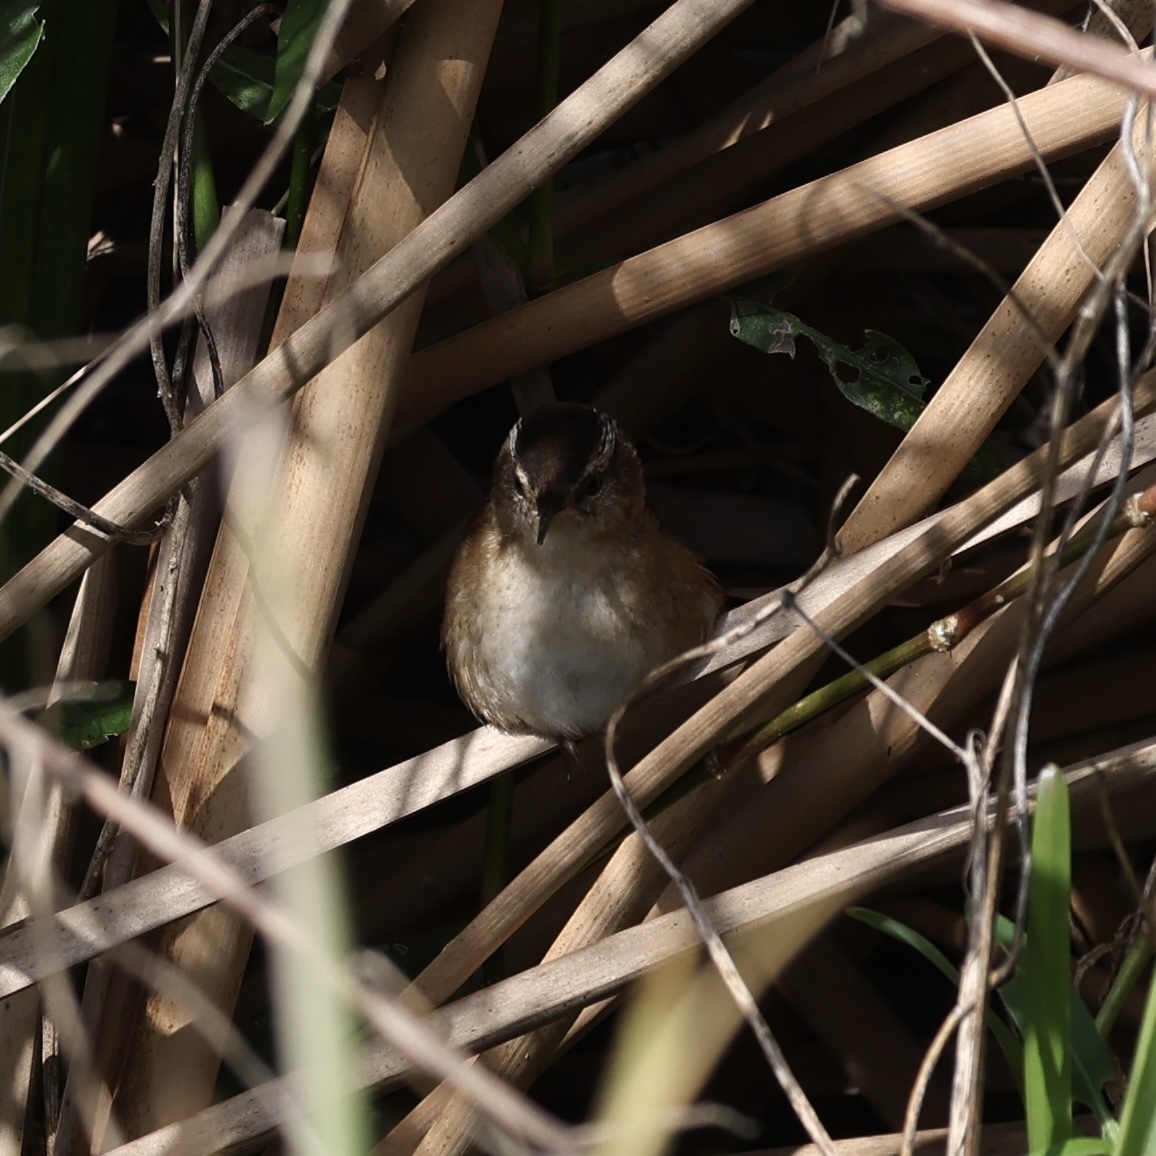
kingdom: Animalia
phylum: Chordata
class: Aves
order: Passeriformes
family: Troglodytidae
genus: Cistothorus
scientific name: Cistothorus palustris
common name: Marsh wren
